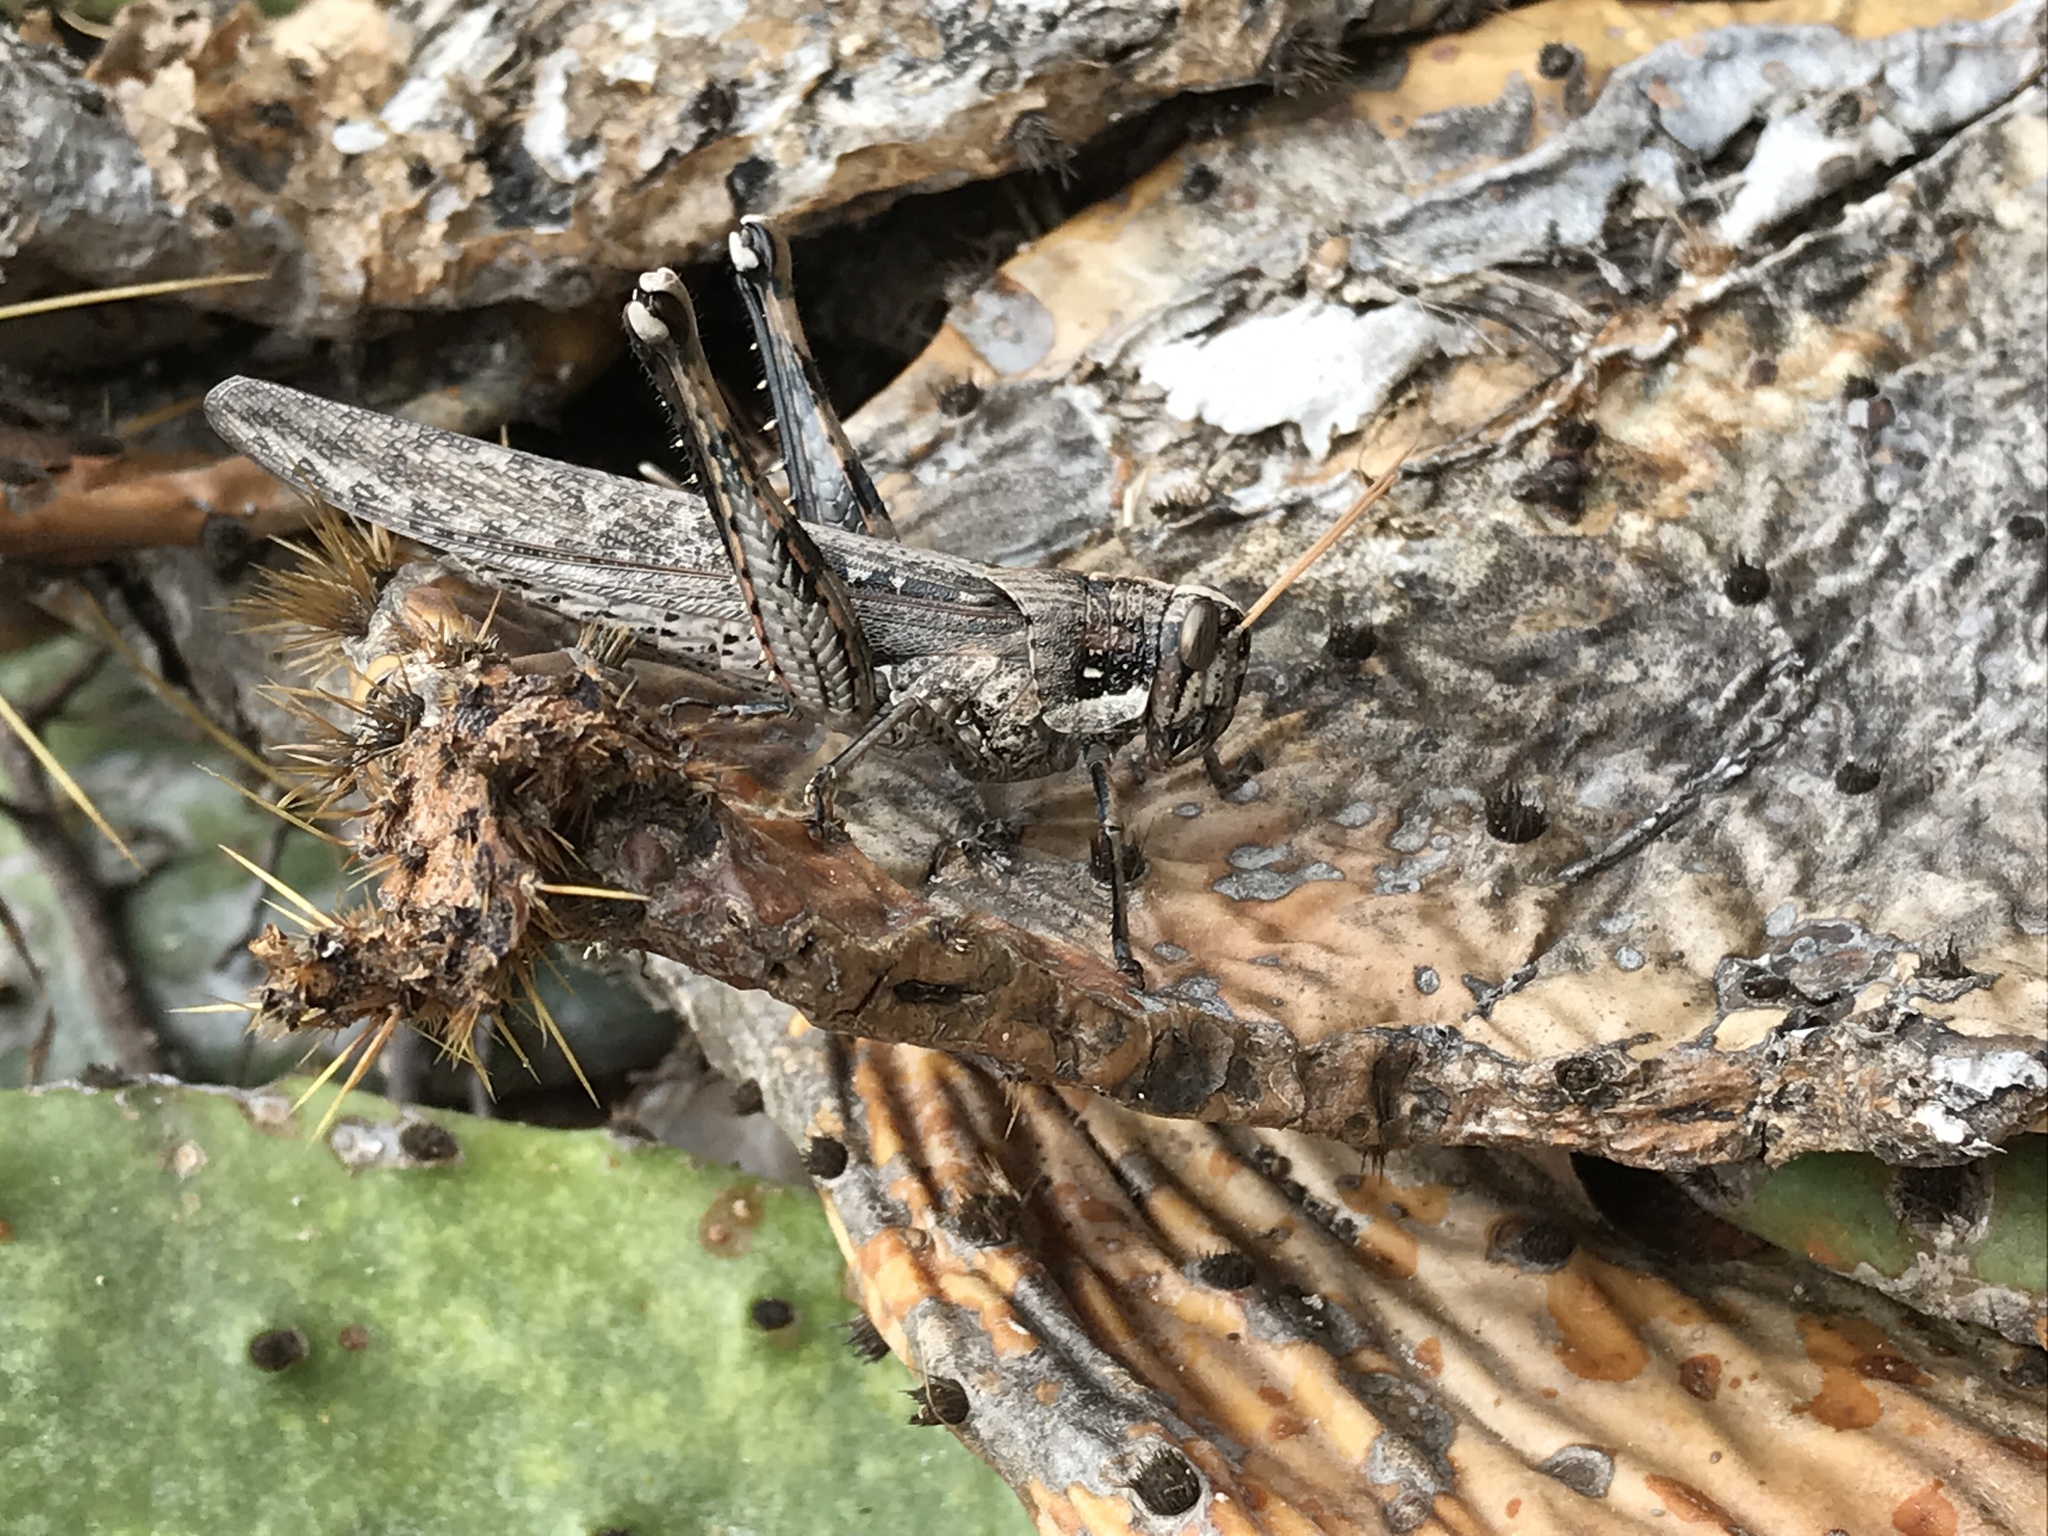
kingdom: Animalia
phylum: Arthropoda
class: Insecta
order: Orthoptera
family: Acrididae
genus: Schistocerca
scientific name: Schistocerca nitens
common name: Vagrant grasshopper
